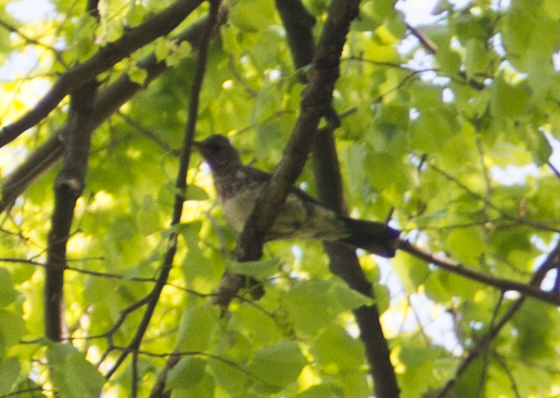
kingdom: Animalia
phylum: Chordata
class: Aves
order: Passeriformes
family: Turdidae
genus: Turdus
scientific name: Turdus pilaris
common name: Fieldfare
